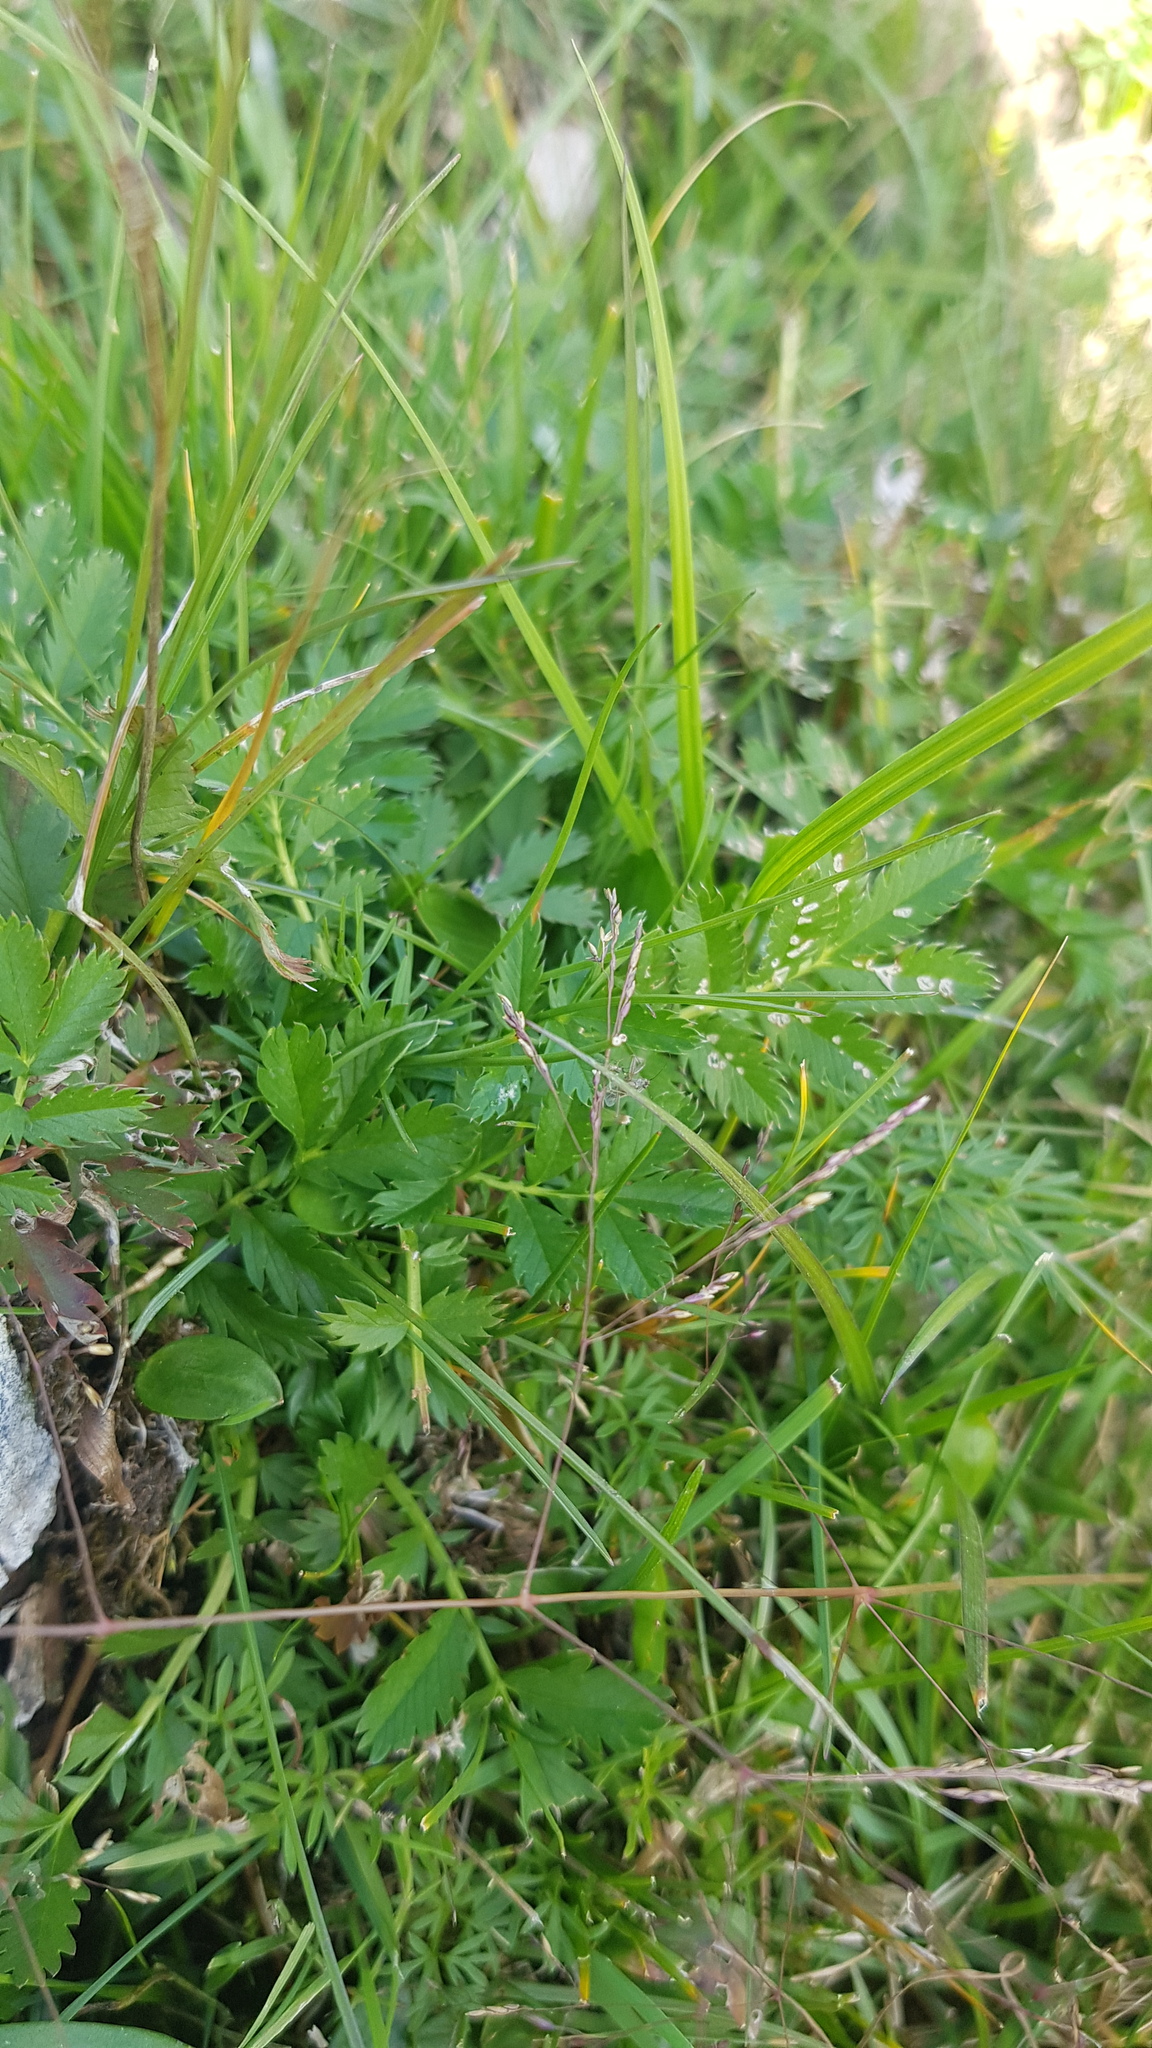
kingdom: Plantae
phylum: Tracheophyta
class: Magnoliopsida
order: Rosales
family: Rosaceae
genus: Argentina
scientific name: Argentina anserina
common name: Common silverweed
